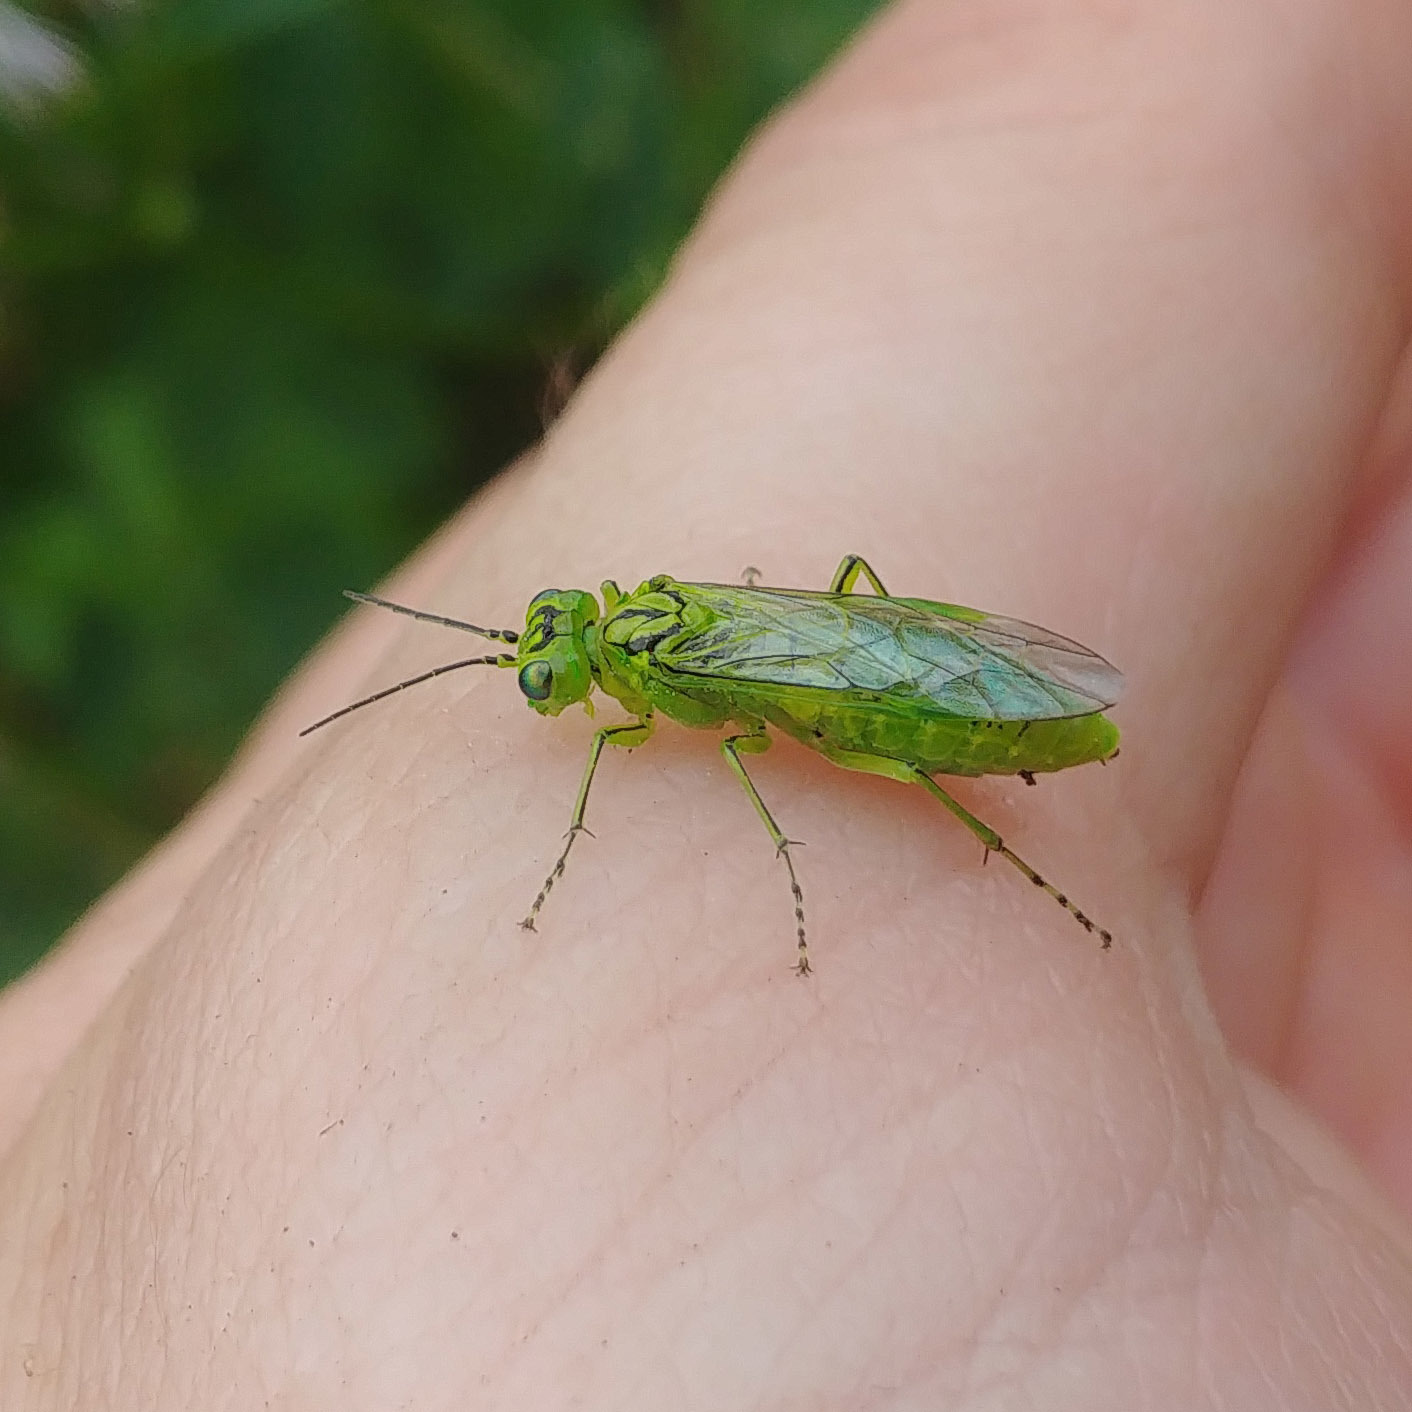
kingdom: Animalia
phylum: Arthropoda
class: Insecta
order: Hymenoptera
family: Tenthredinidae
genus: Rhogogaster
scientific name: Rhogogaster punctulata
